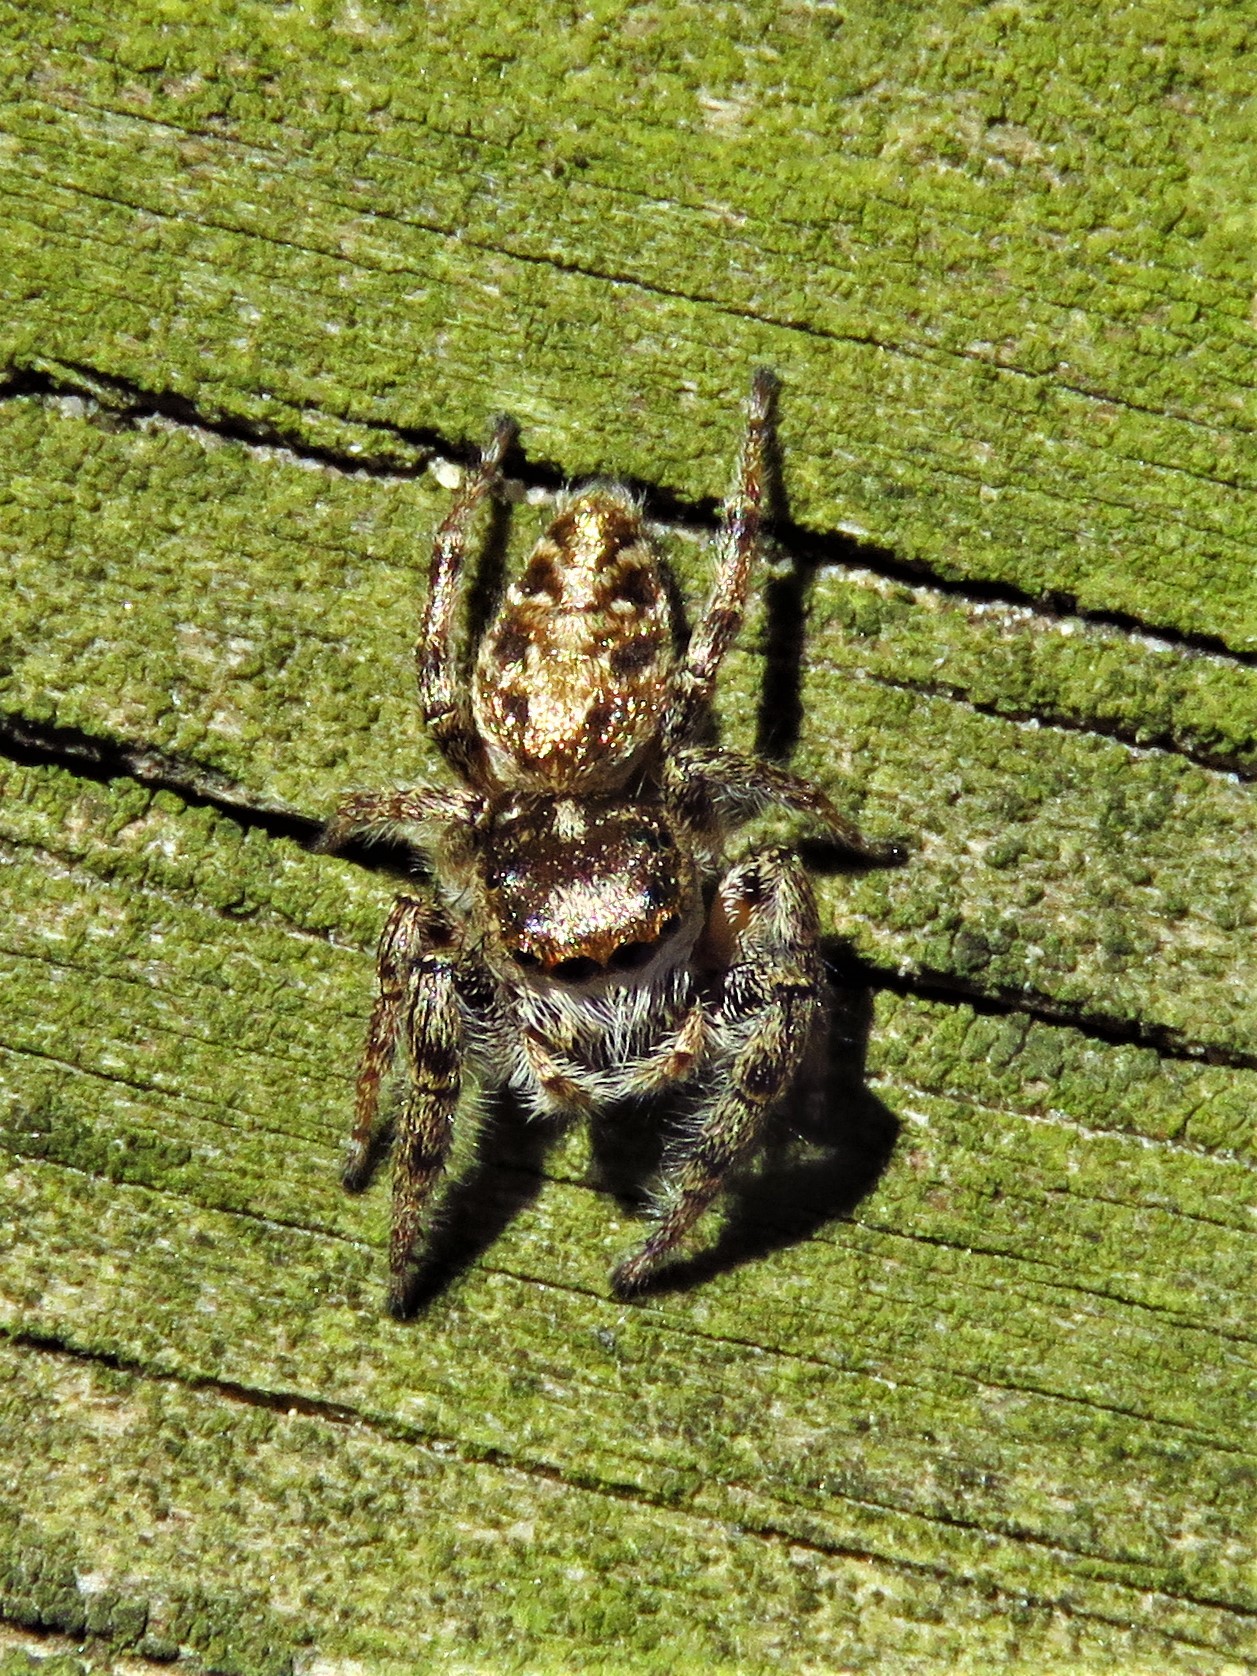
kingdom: Animalia
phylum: Arthropoda
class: Arachnida
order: Araneae
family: Salticidae
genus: Eris
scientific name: Eris militaris
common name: Bronze jumper
